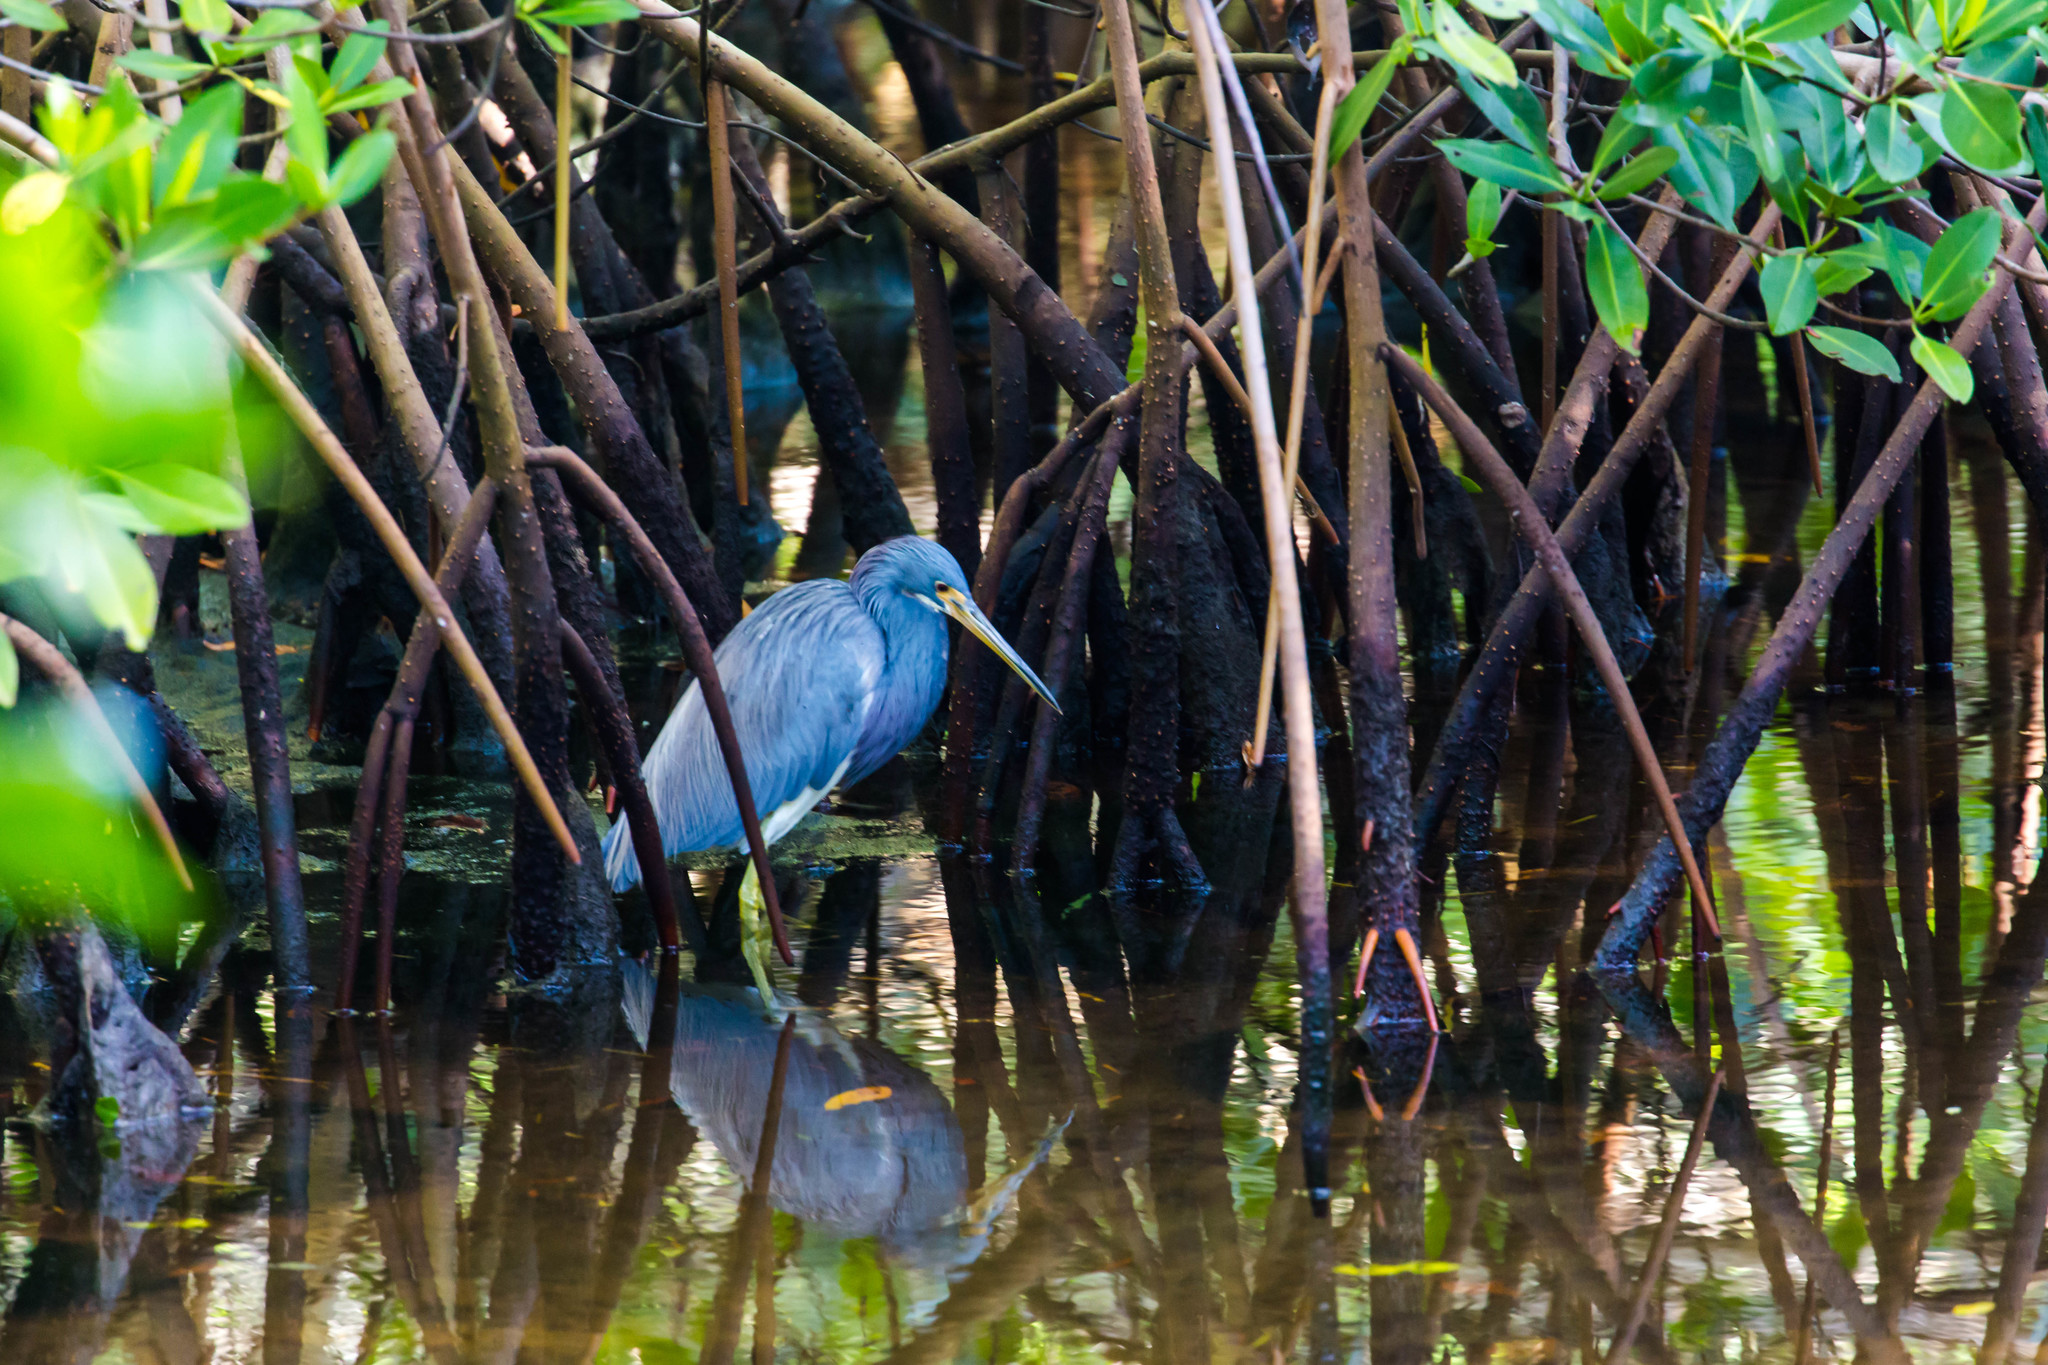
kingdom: Animalia
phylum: Chordata
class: Aves
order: Pelecaniformes
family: Ardeidae
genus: Egretta
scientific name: Egretta tricolor
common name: Tricolored heron
